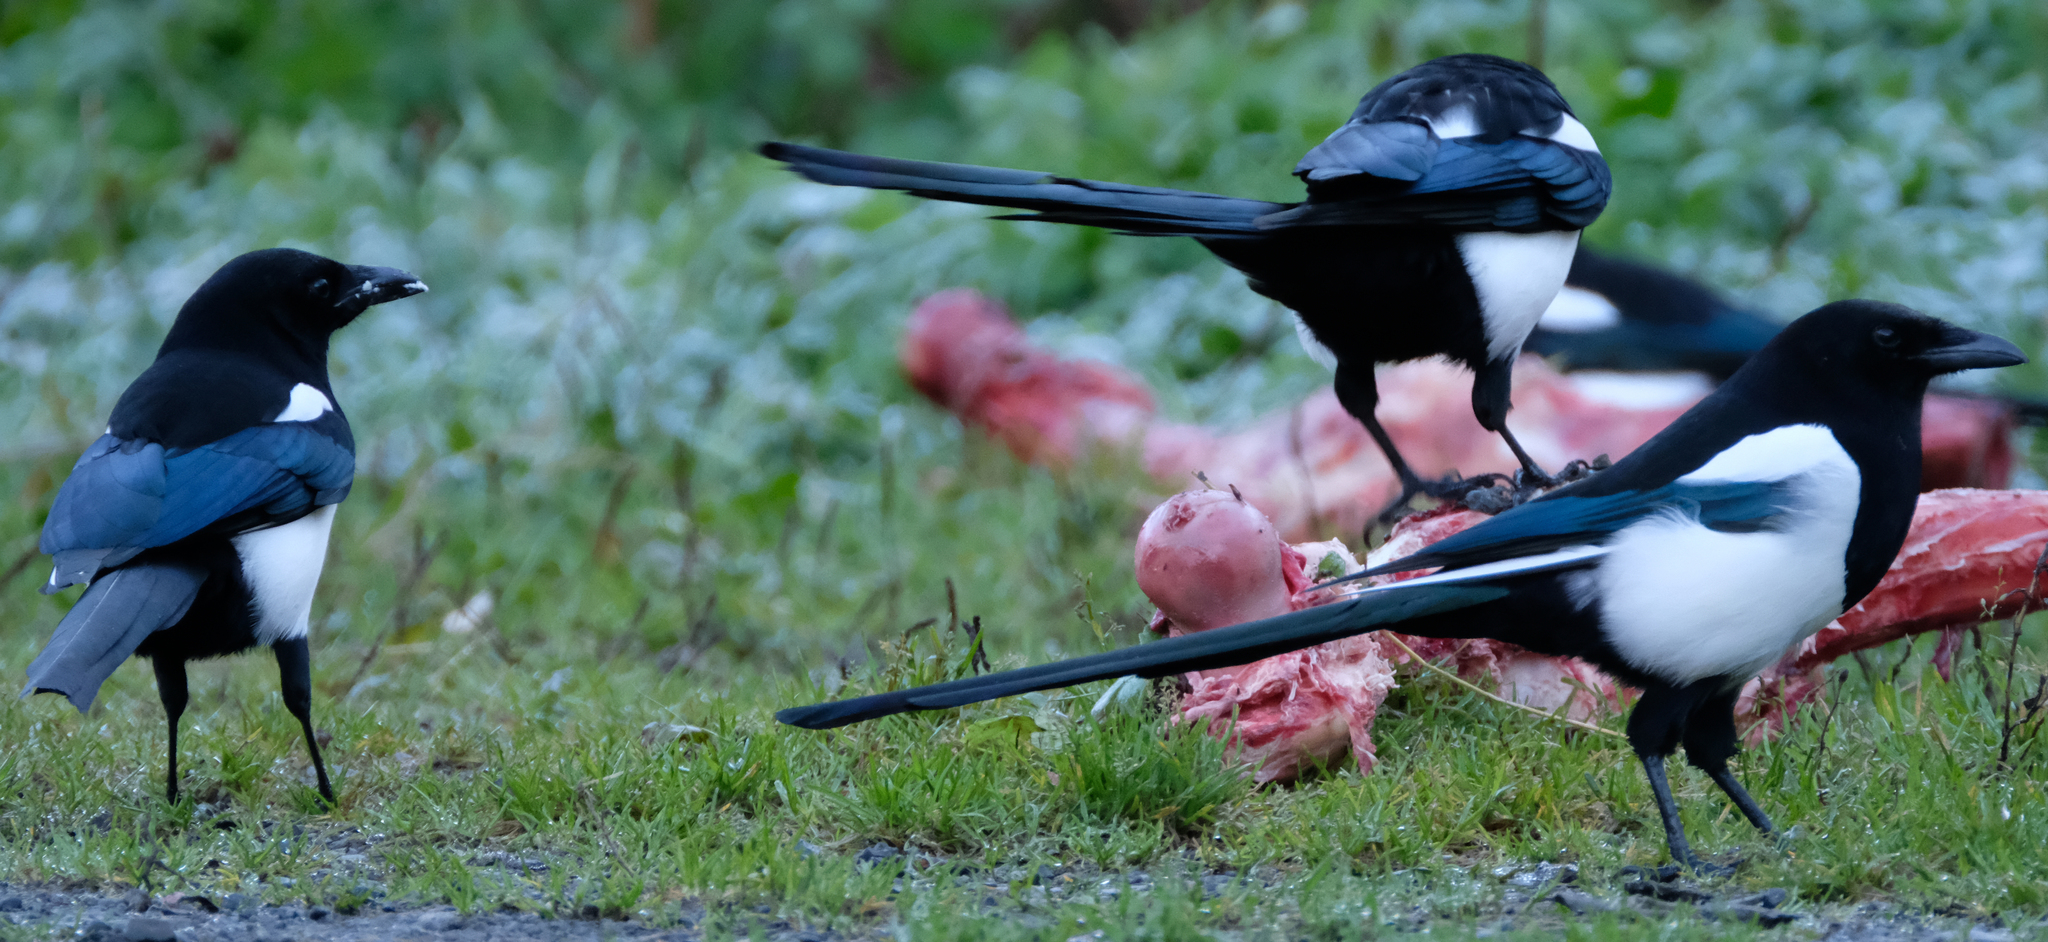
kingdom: Animalia
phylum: Chordata
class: Aves
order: Passeriformes
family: Corvidae
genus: Pica
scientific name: Pica hudsonia
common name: Black-billed magpie
